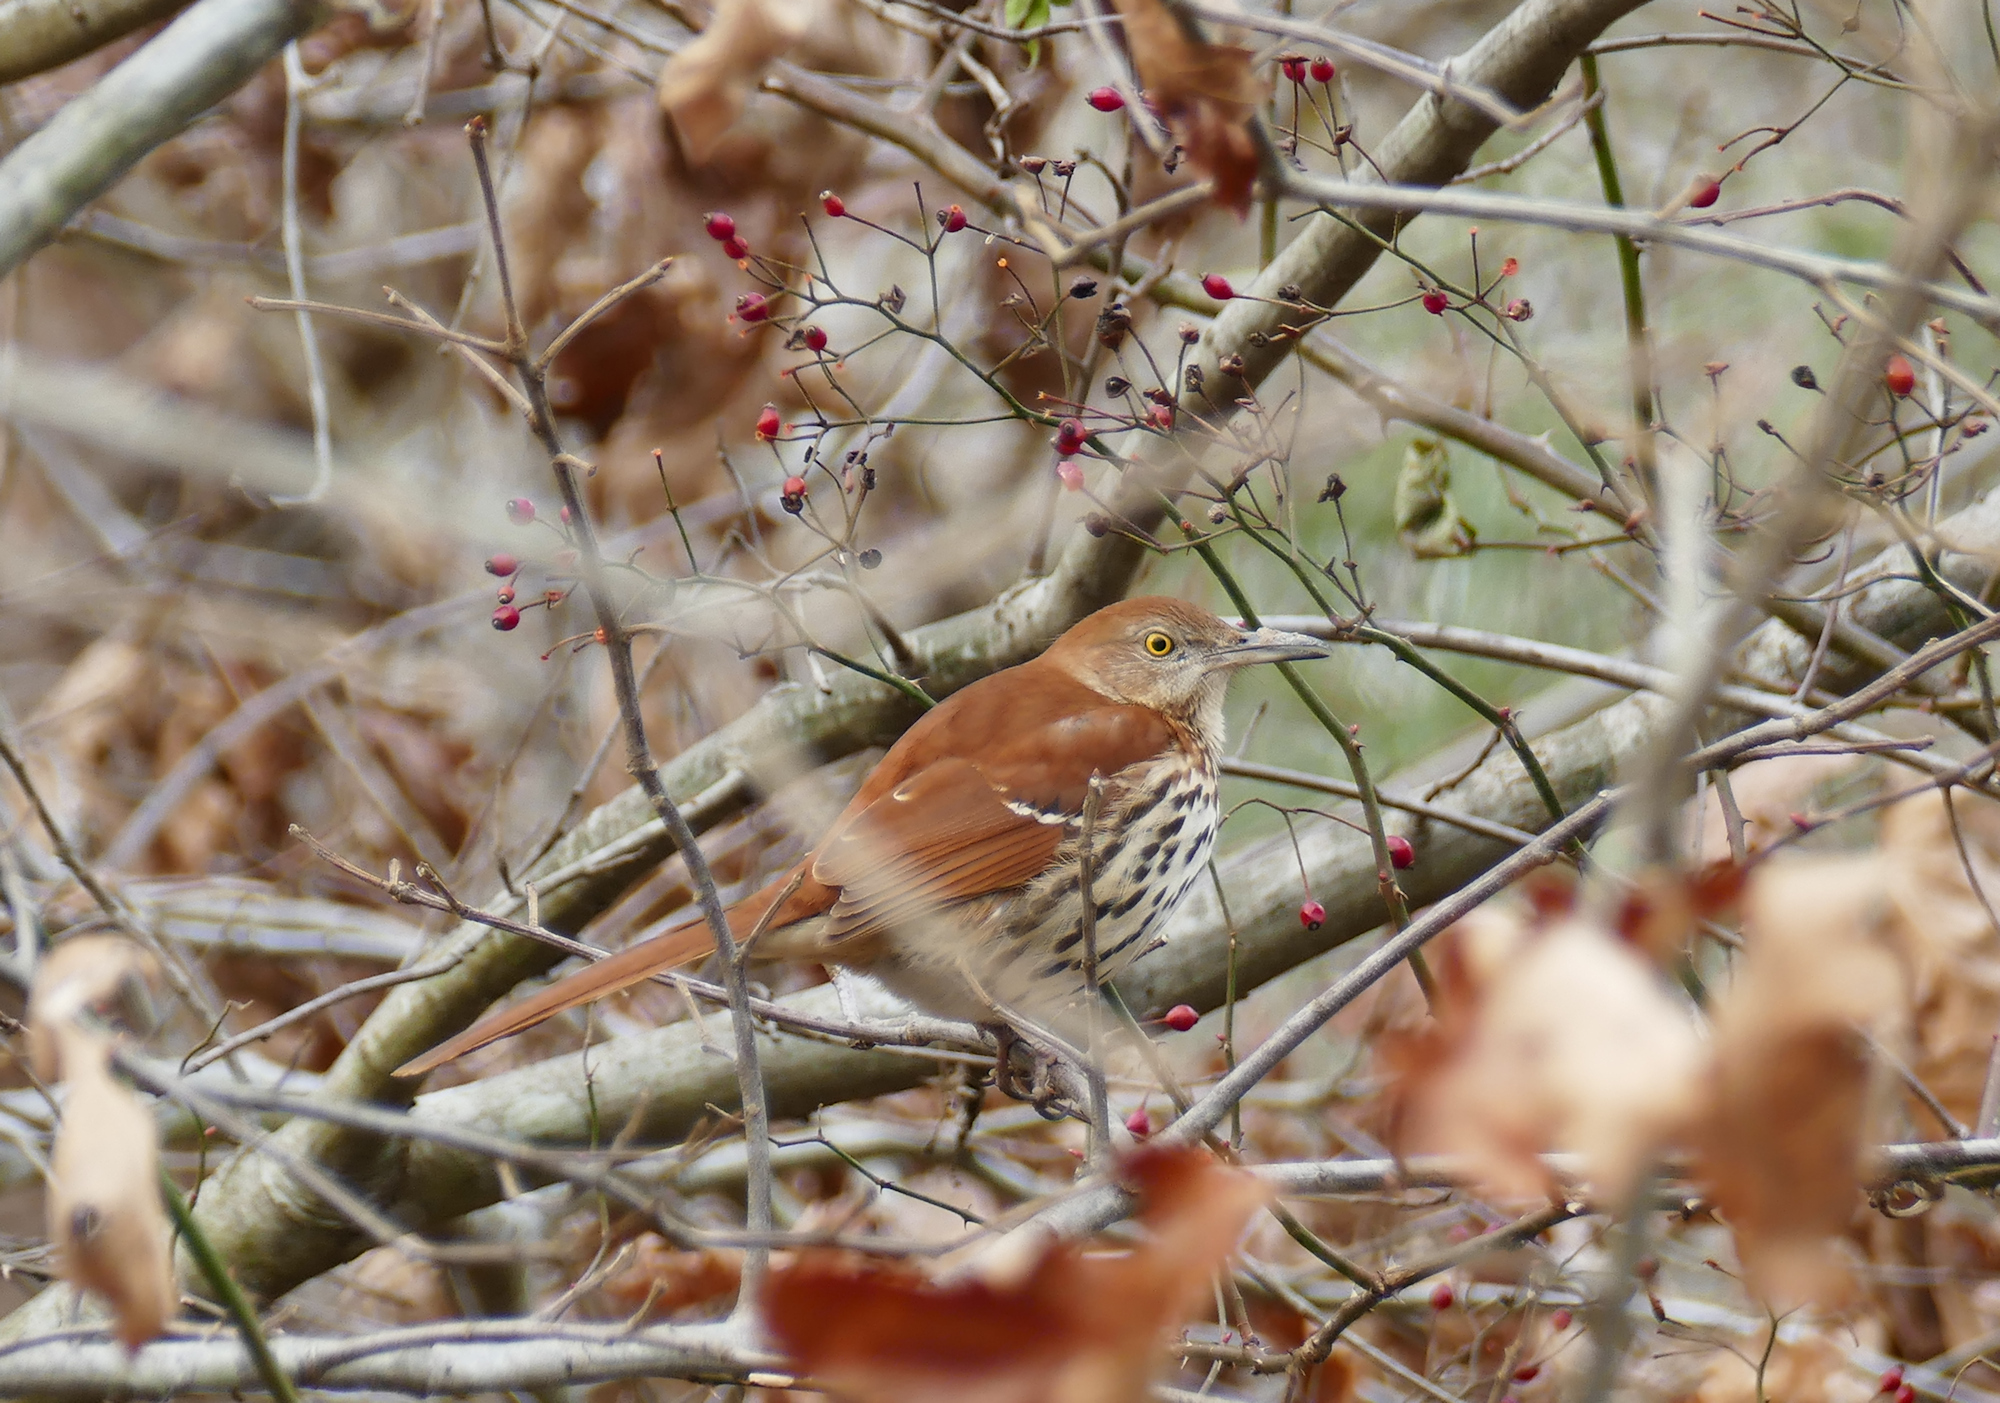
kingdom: Animalia
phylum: Chordata
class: Aves
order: Passeriformes
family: Mimidae
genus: Toxostoma
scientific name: Toxostoma rufum
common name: Brown thrasher
